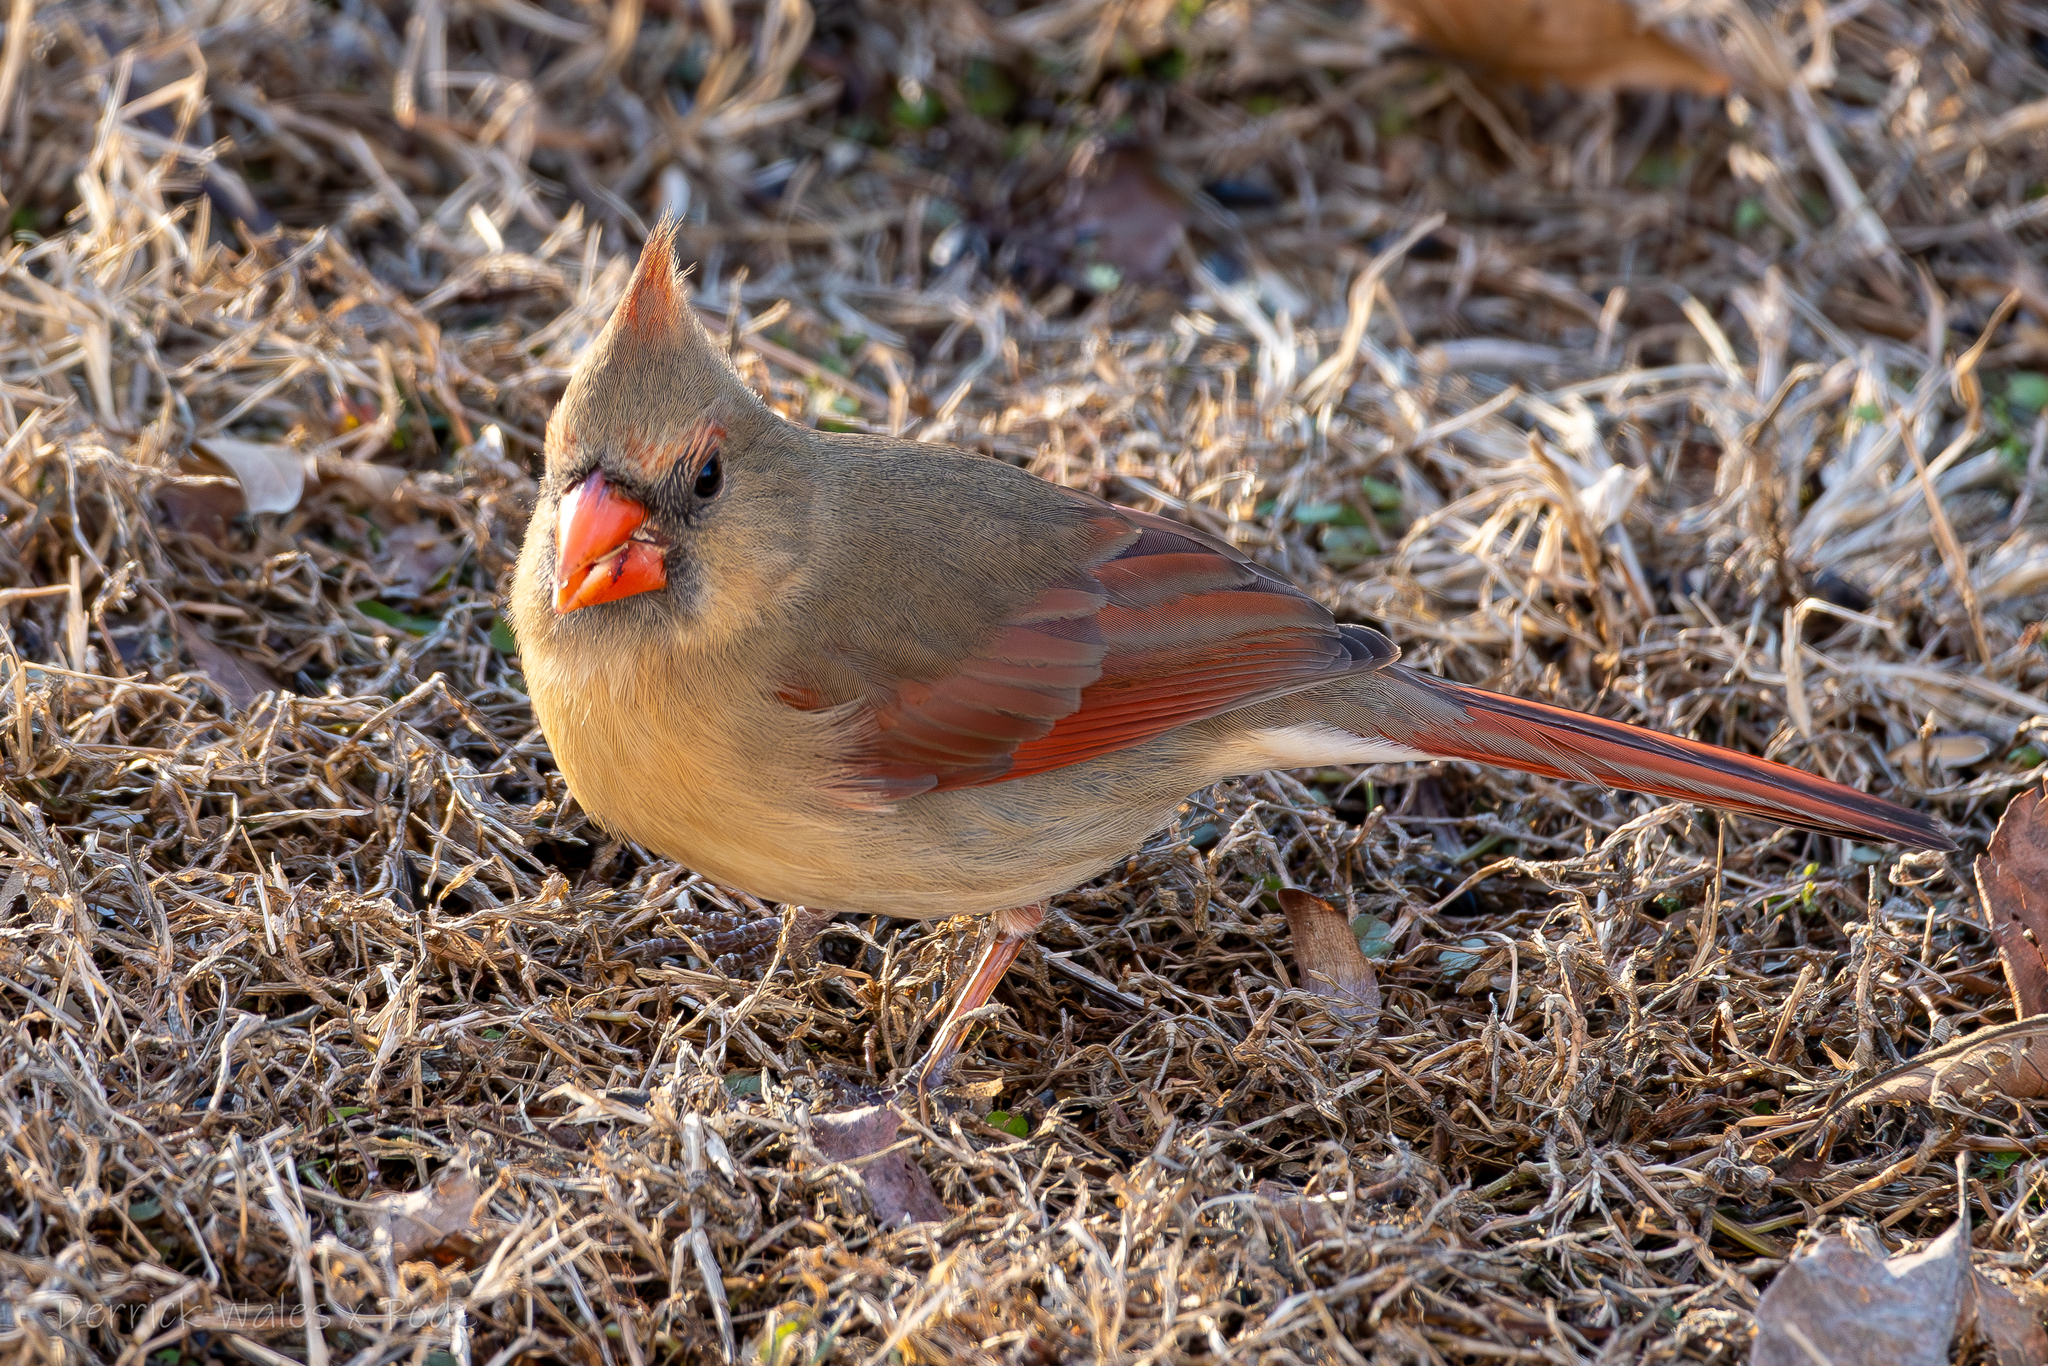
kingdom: Animalia
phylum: Chordata
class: Aves
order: Passeriformes
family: Cardinalidae
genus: Cardinalis
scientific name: Cardinalis cardinalis
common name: Northern cardinal
